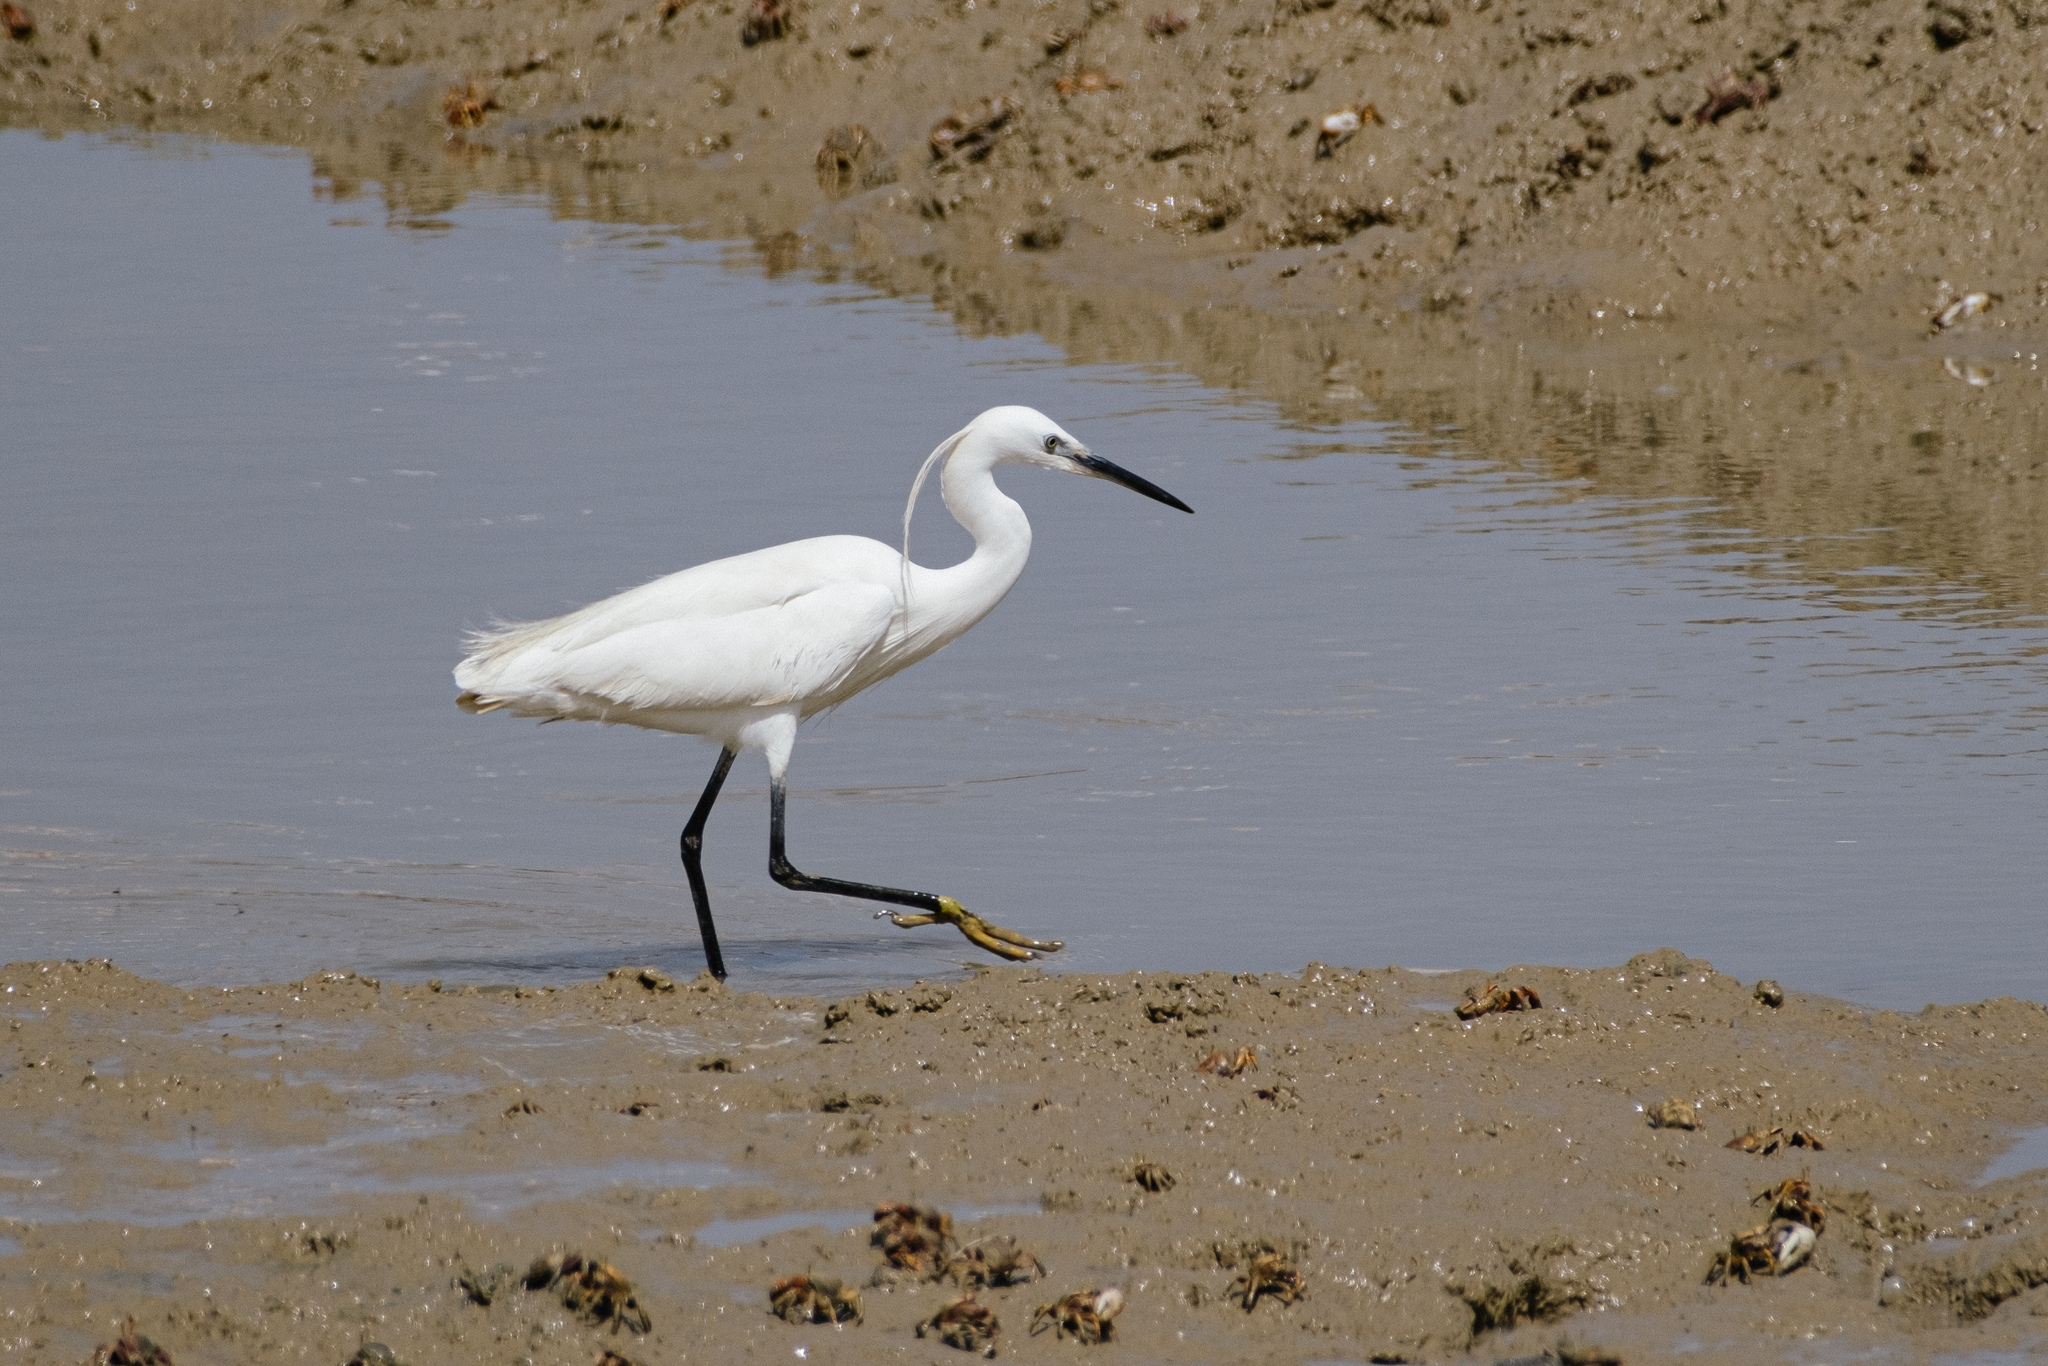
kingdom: Animalia
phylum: Chordata
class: Aves
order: Pelecaniformes
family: Ardeidae
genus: Egretta
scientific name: Egretta garzetta
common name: Little egret
